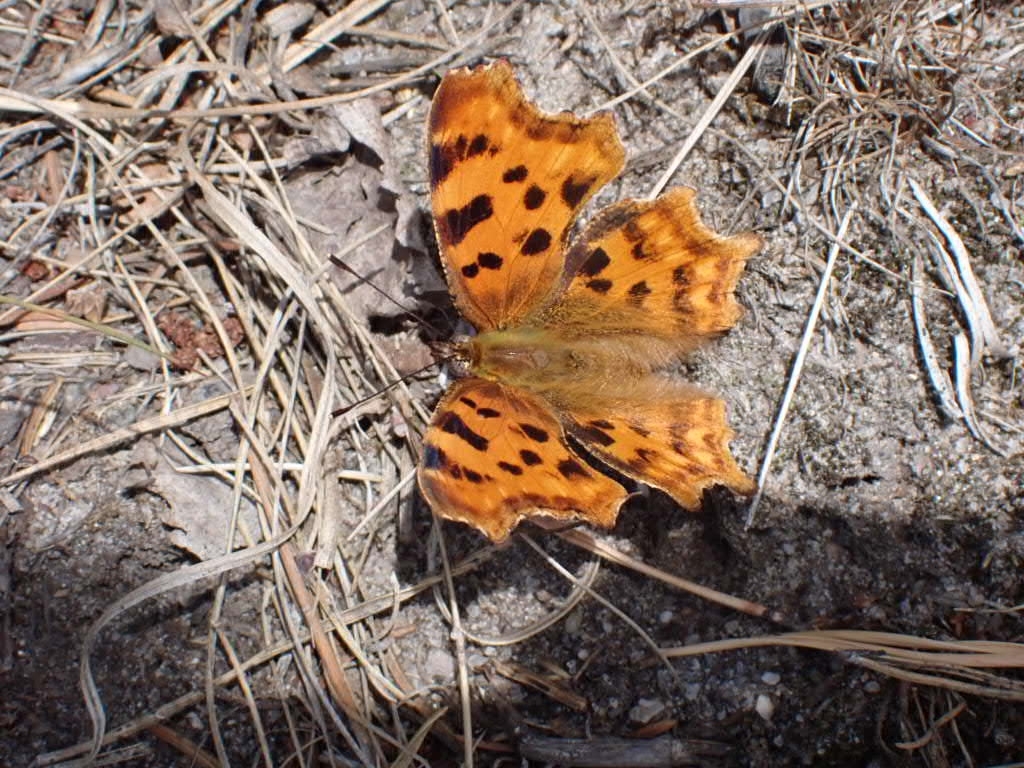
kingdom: Animalia
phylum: Arthropoda
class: Insecta
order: Lepidoptera
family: Nymphalidae
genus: Polygonia
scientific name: Polygonia c-album
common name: Comma
